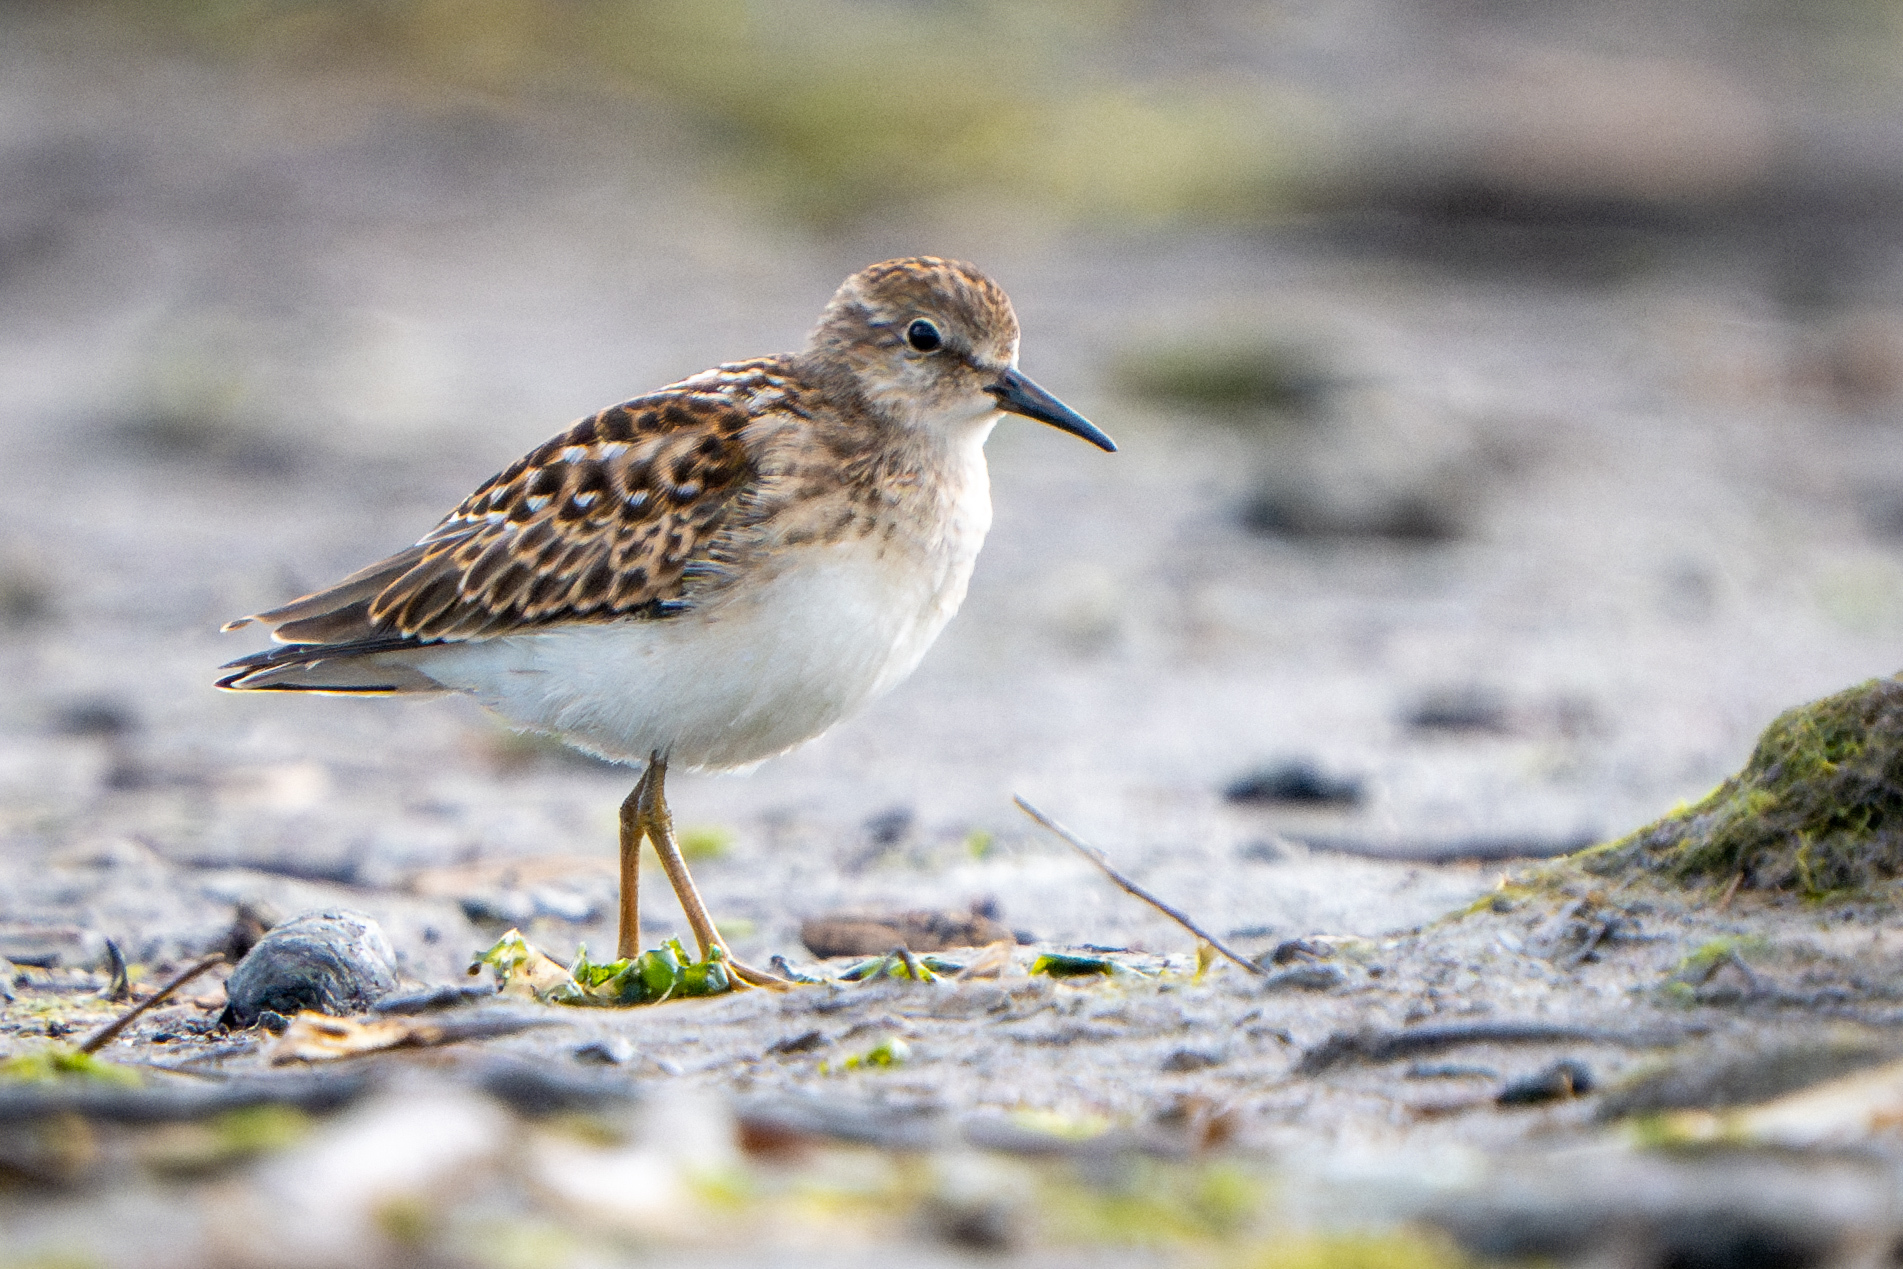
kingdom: Animalia
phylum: Chordata
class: Aves
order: Charadriiformes
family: Scolopacidae
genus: Calidris
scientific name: Calidris minutilla
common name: Least sandpiper
